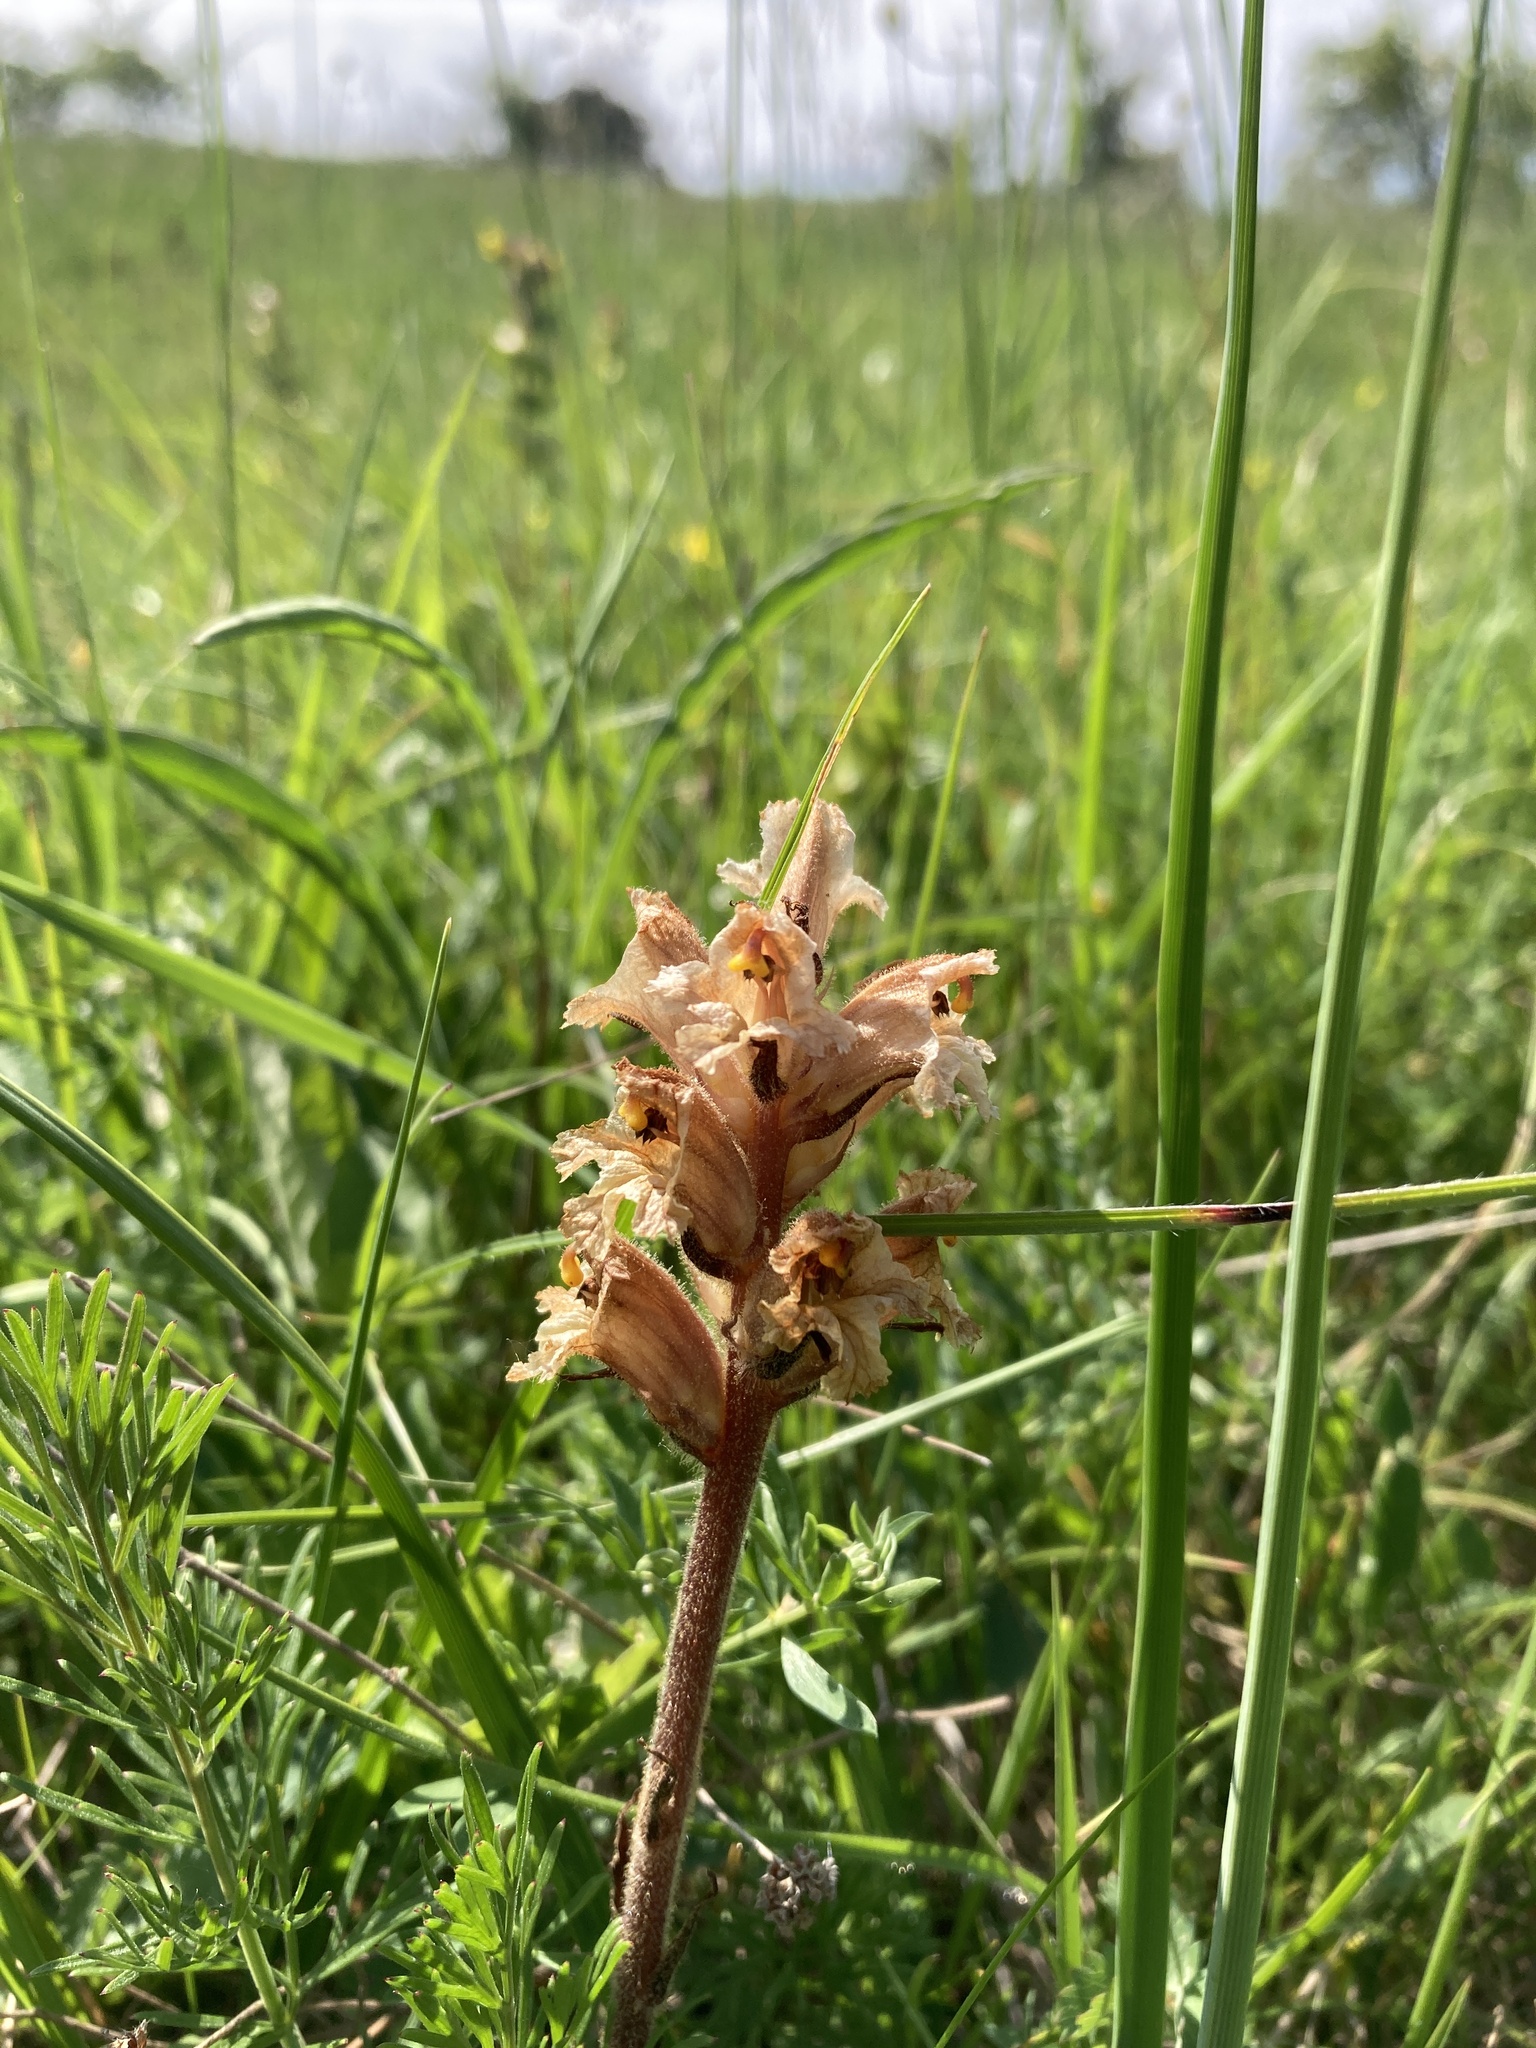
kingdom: Plantae
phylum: Tracheophyta
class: Magnoliopsida
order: Lamiales
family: Orobanchaceae
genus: Orobanche
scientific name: Orobanche lutea
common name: Yellow broomrape
